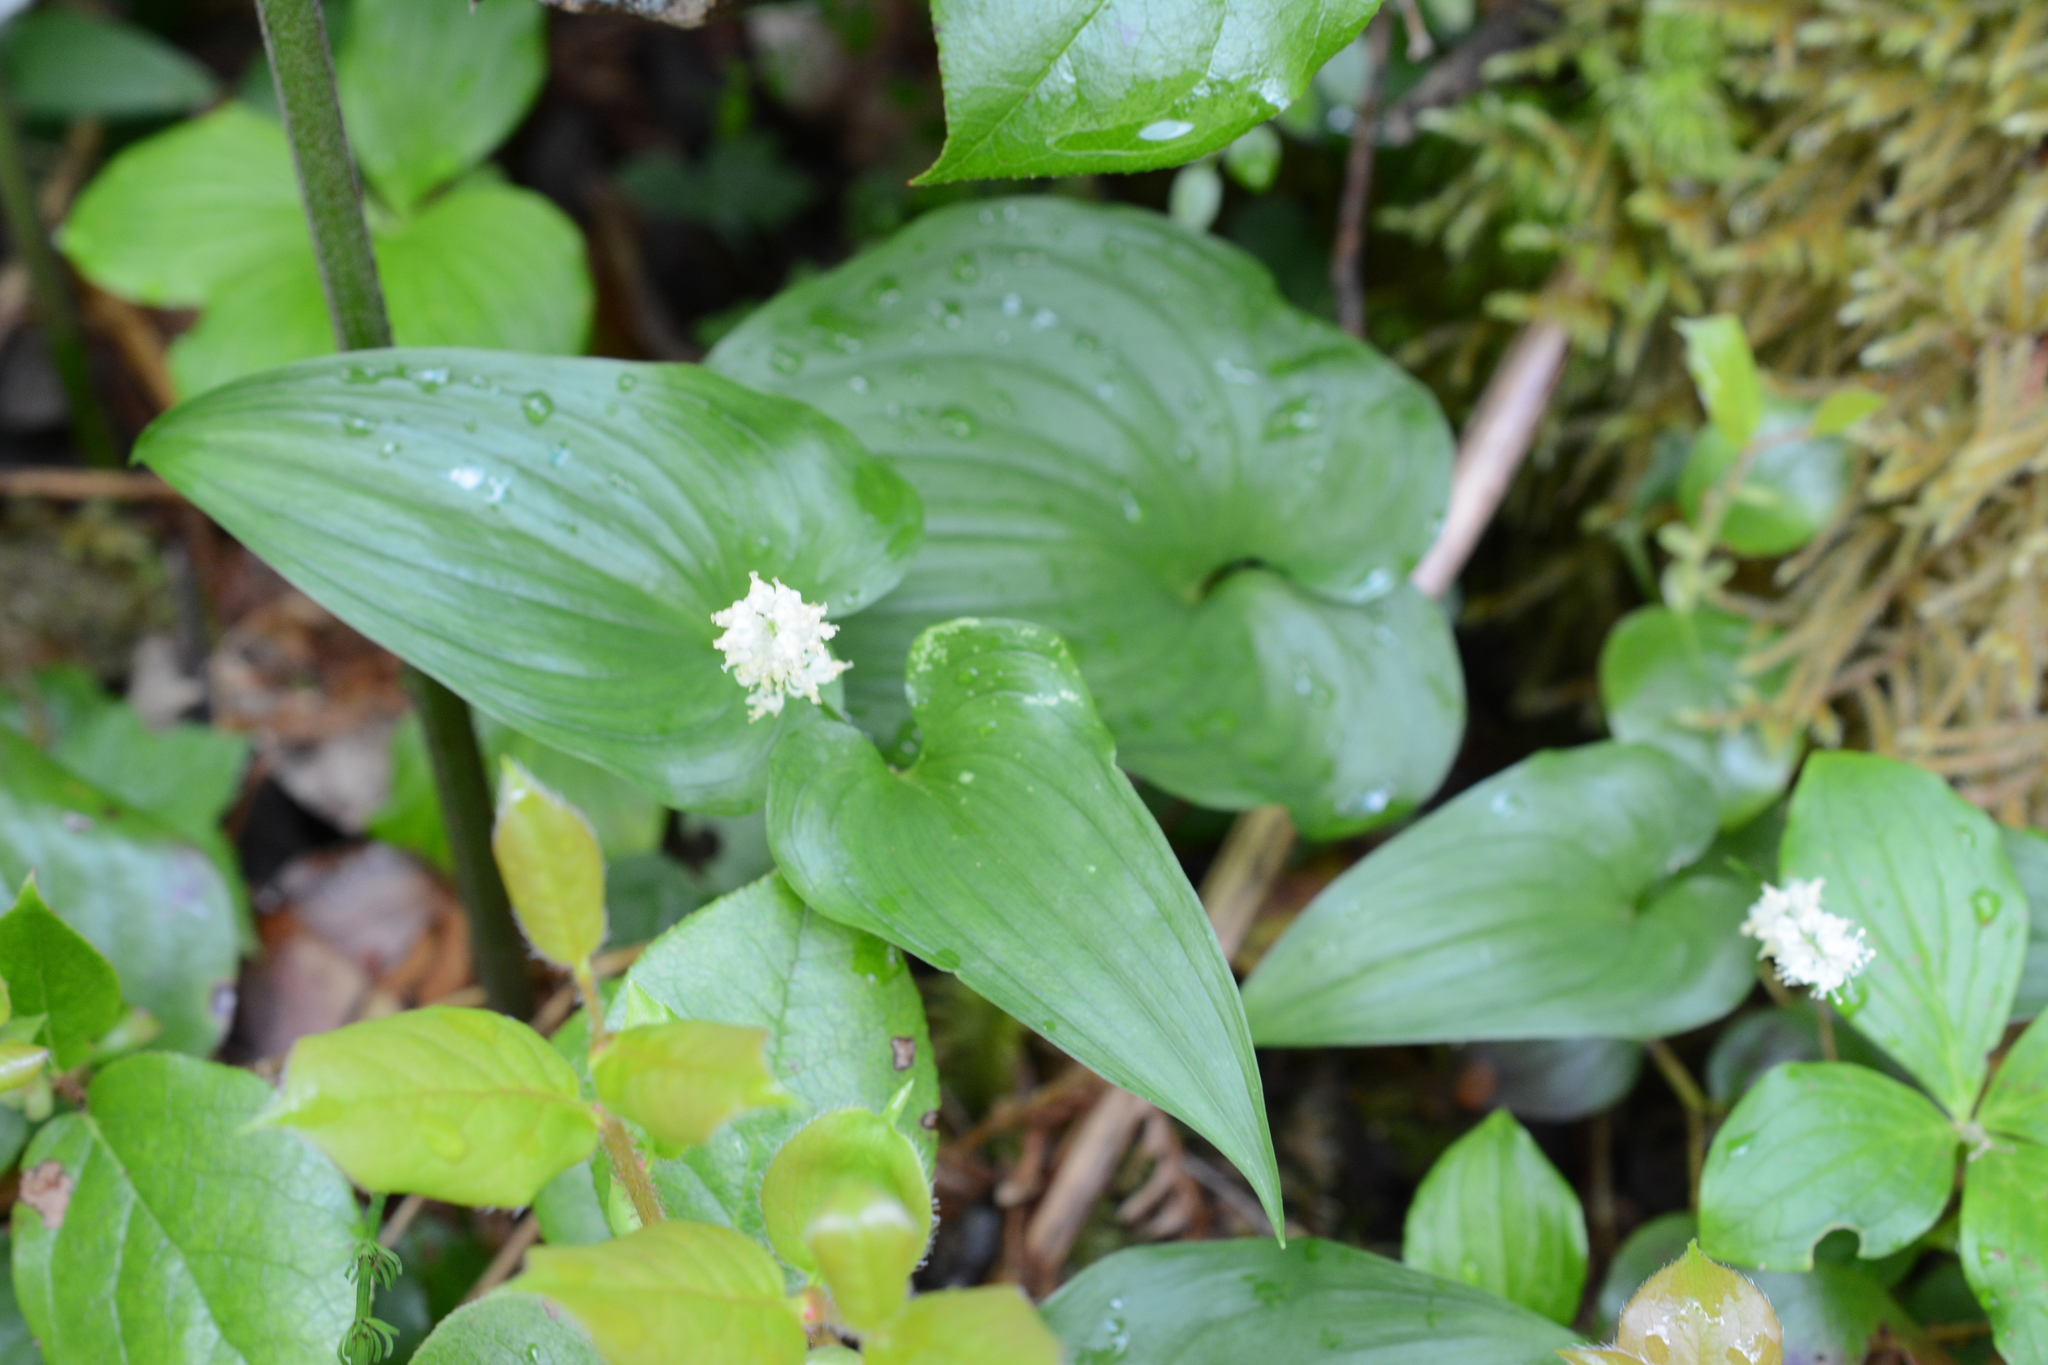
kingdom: Plantae
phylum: Tracheophyta
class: Liliopsida
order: Asparagales
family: Asparagaceae
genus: Maianthemum
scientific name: Maianthemum dilatatum
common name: False lily-of-the-valley
